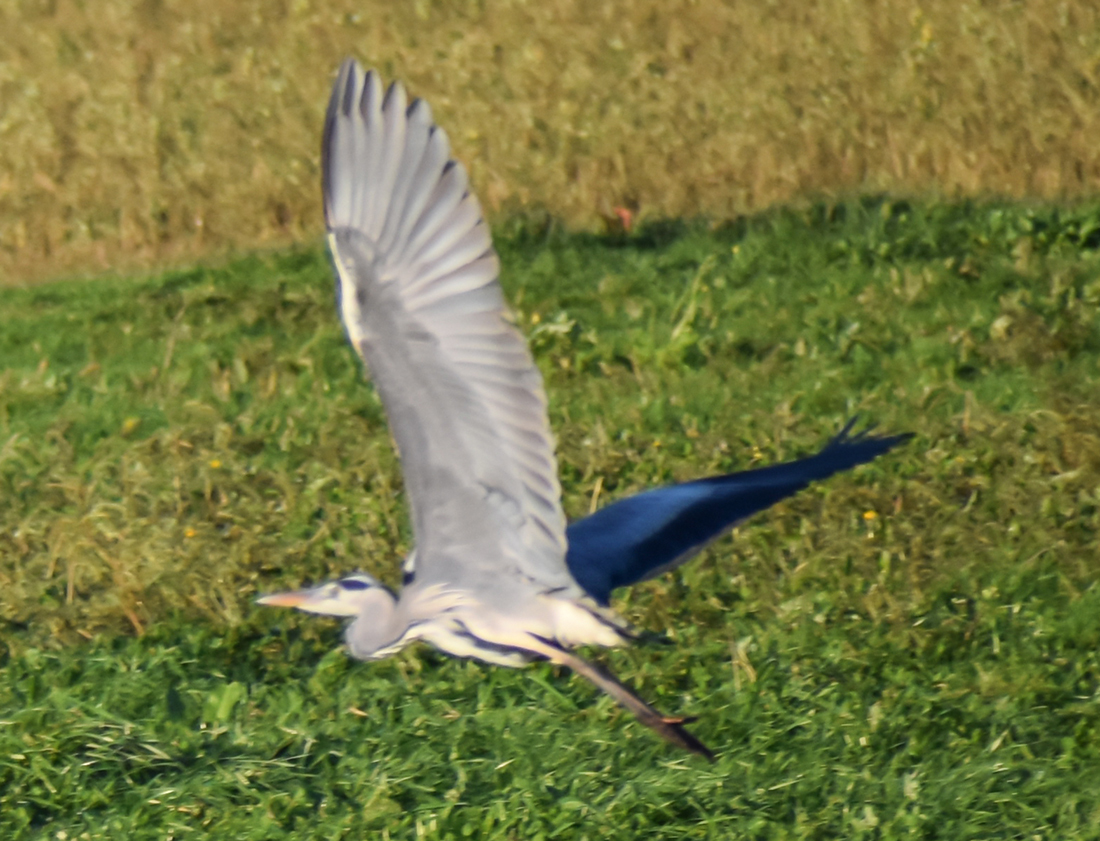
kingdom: Animalia
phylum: Chordata
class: Aves
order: Pelecaniformes
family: Ardeidae
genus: Ardea
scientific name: Ardea cinerea
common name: Grey heron
